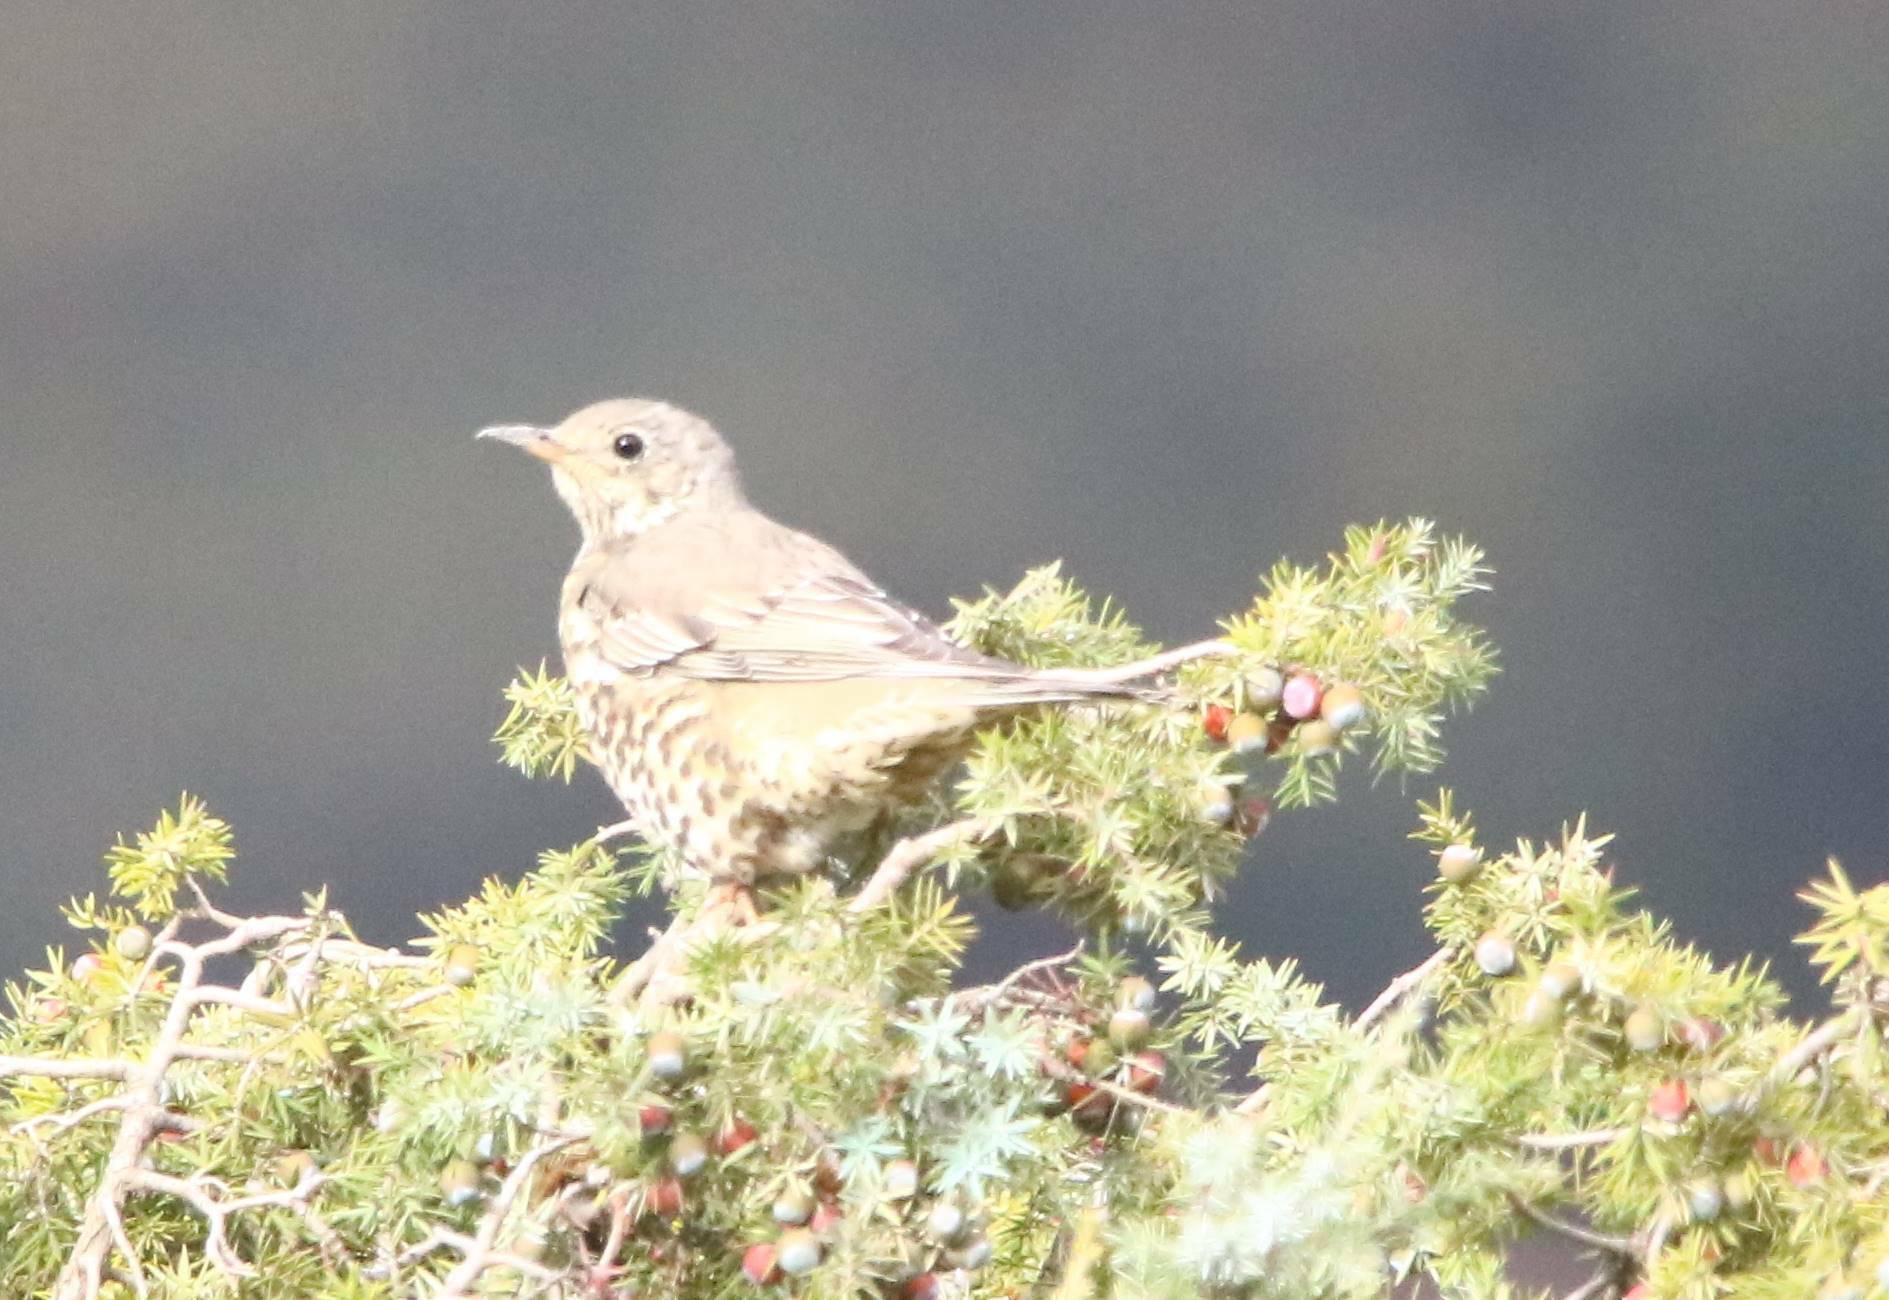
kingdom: Animalia
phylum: Chordata
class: Aves
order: Passeriformes
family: Turdidae
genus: Turdus
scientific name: Turdus viscivorus
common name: Mistle thrush
